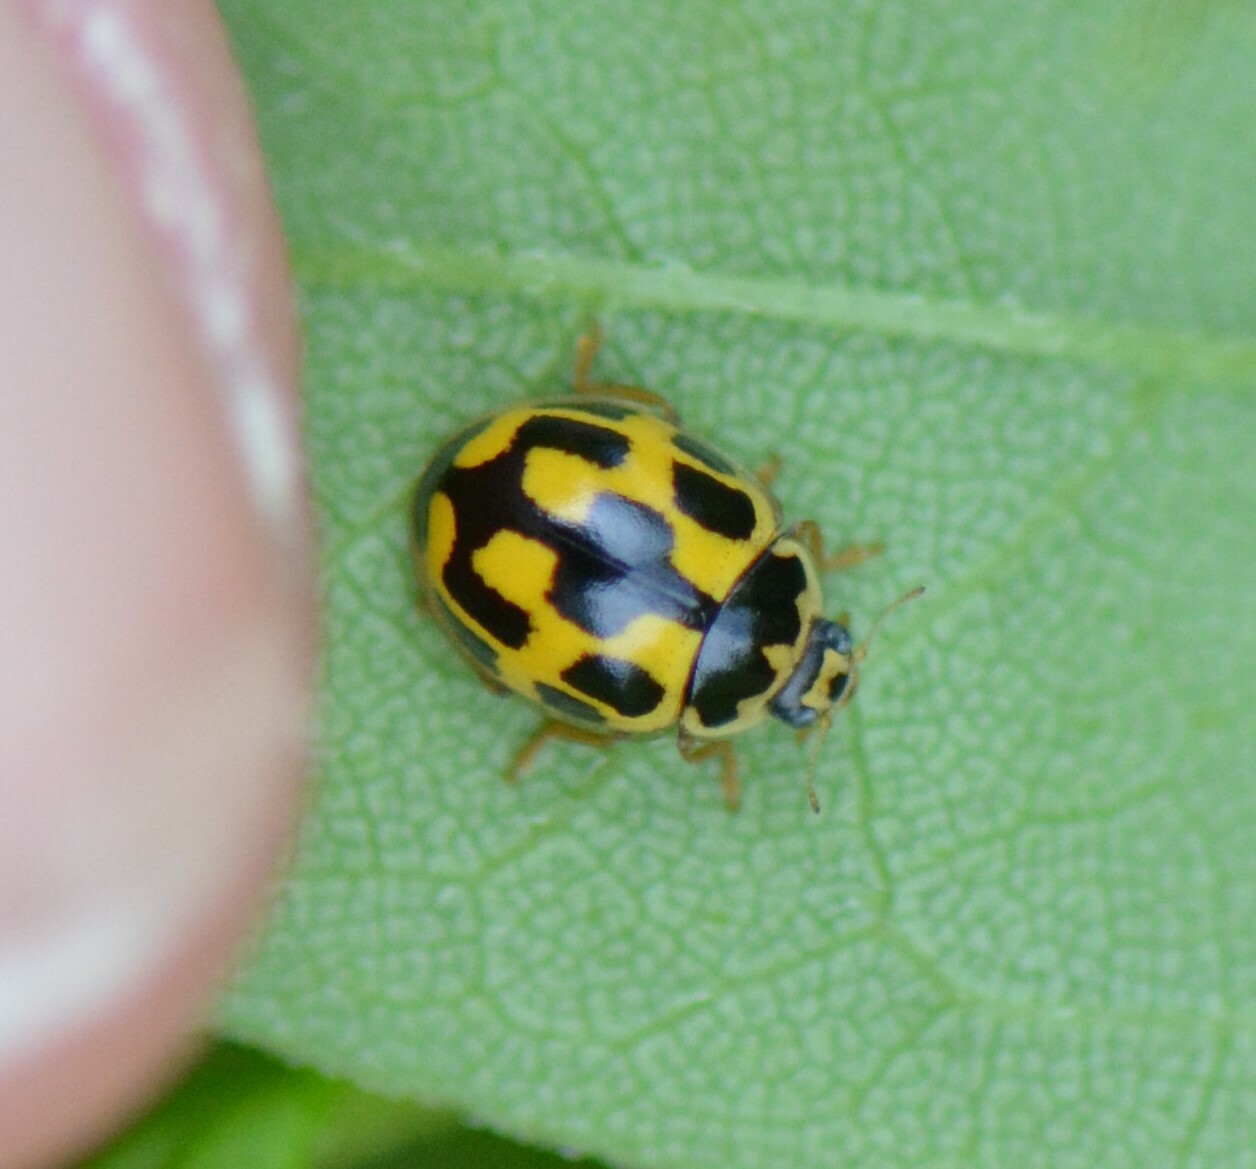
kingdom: Animalia
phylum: Arthropoda
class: Insecta
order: Coleoptera
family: Coccinellidae
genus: Propylaea
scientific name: Propylaea quatuordecimpunctata
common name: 14-spotted ladybird beetle
